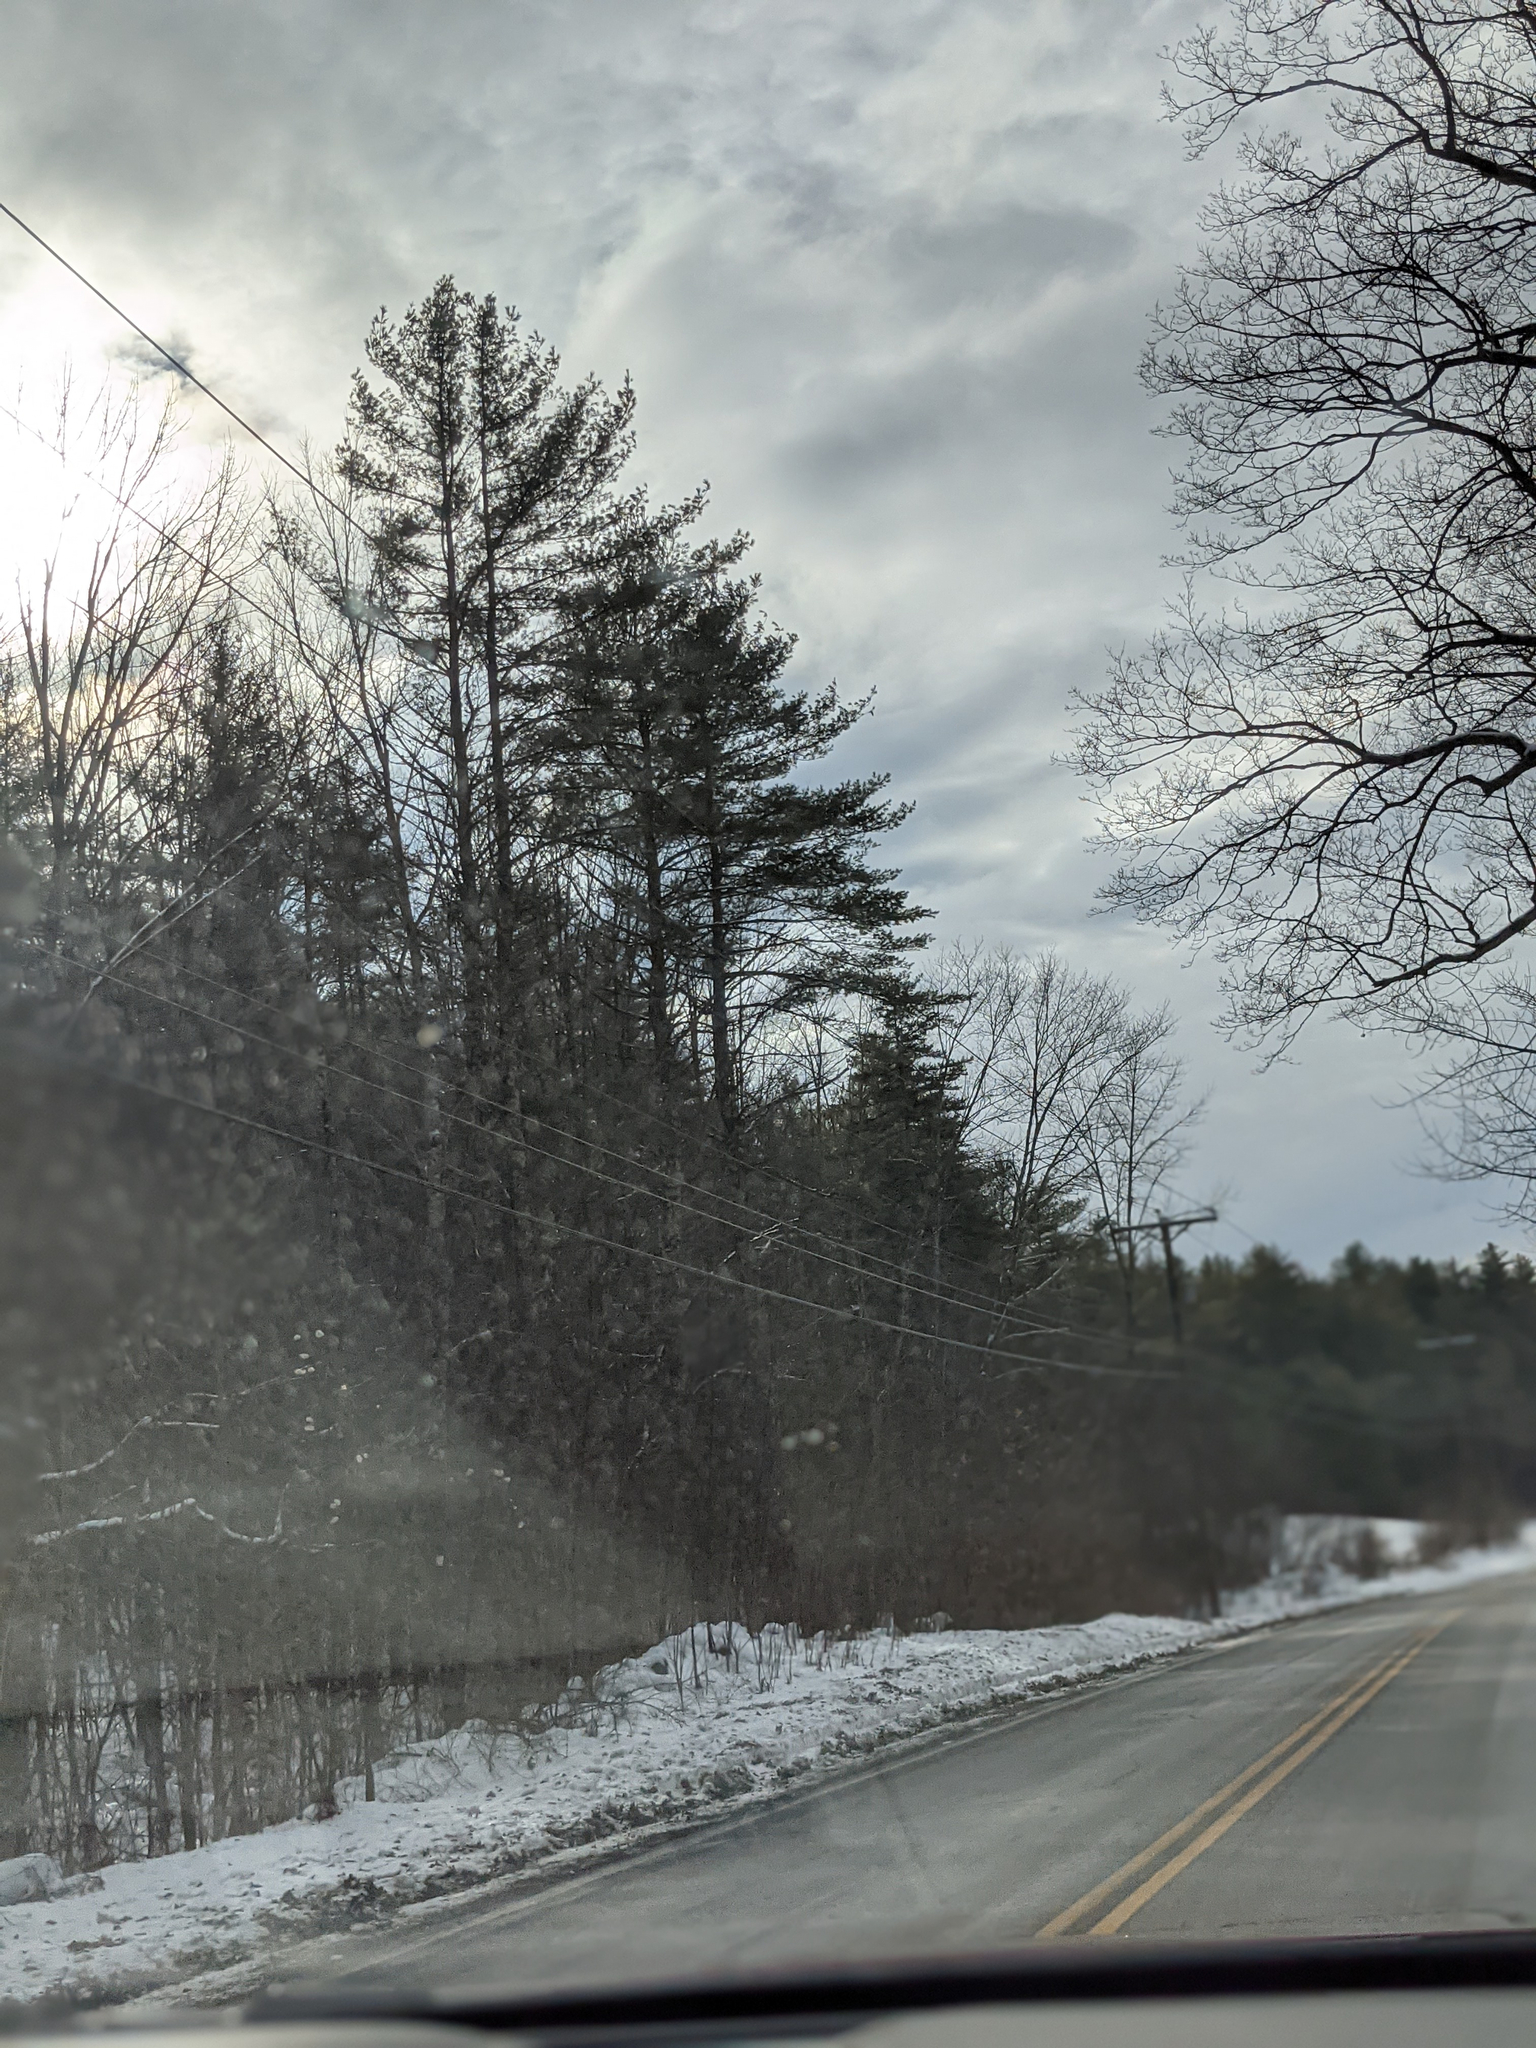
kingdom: Plantae
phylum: Tracheophyta
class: Pinopsida
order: Pinales
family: Pinaceae
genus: Pinus
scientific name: Pinus strobus
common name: Weymouth pine
